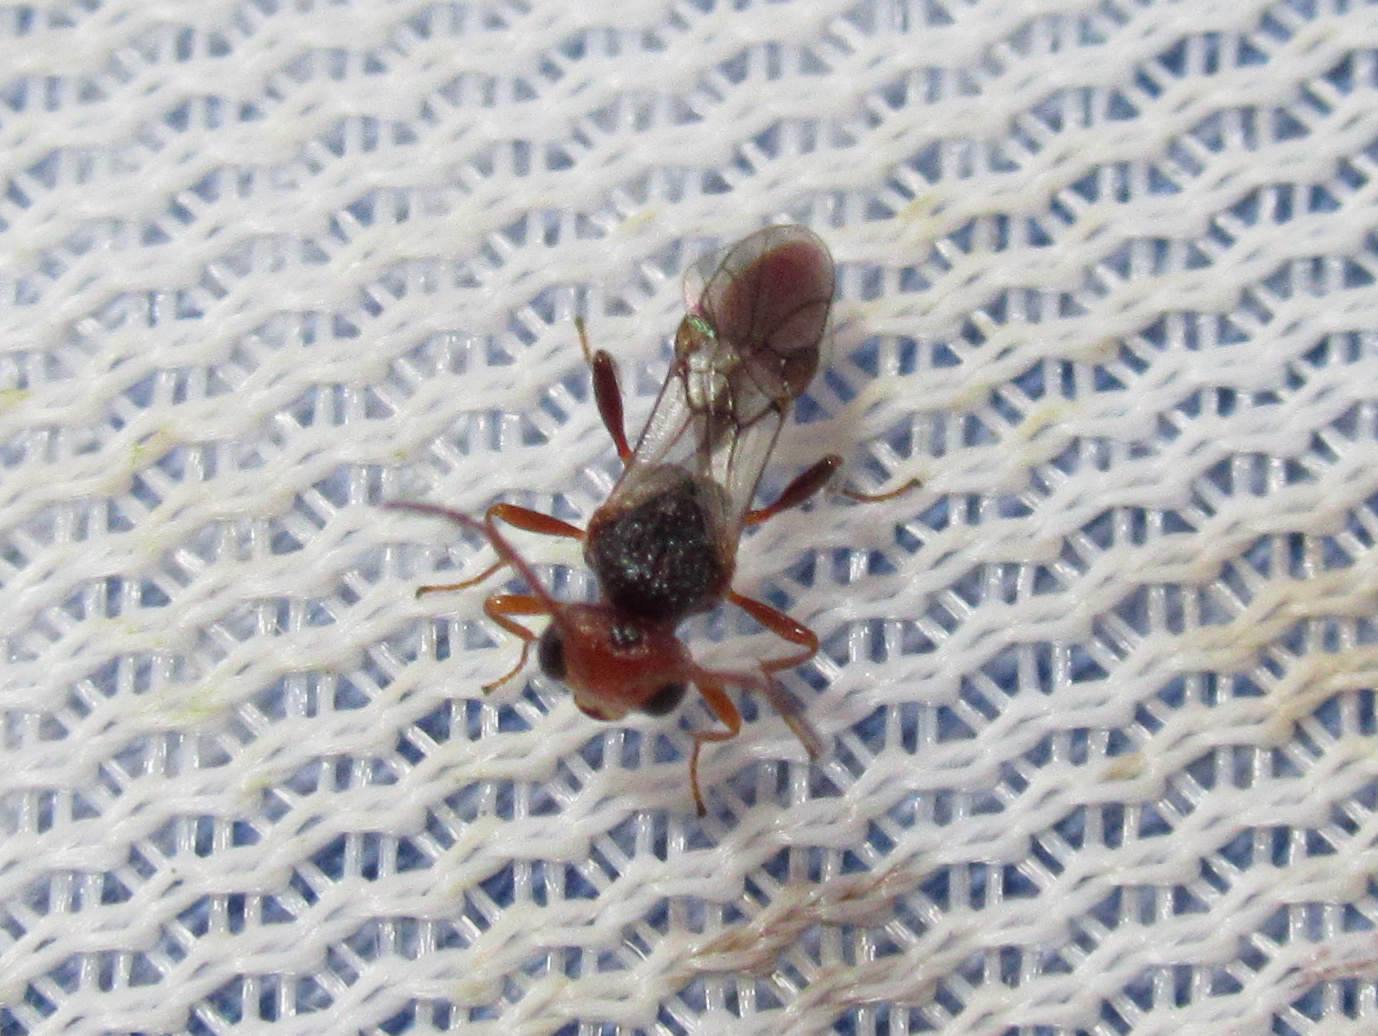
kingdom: Animalia
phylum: Arthropoda
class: Insecta
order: Hymenoptera
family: Braconidae
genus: Aridelus
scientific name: Aridelus rufotestaceus
